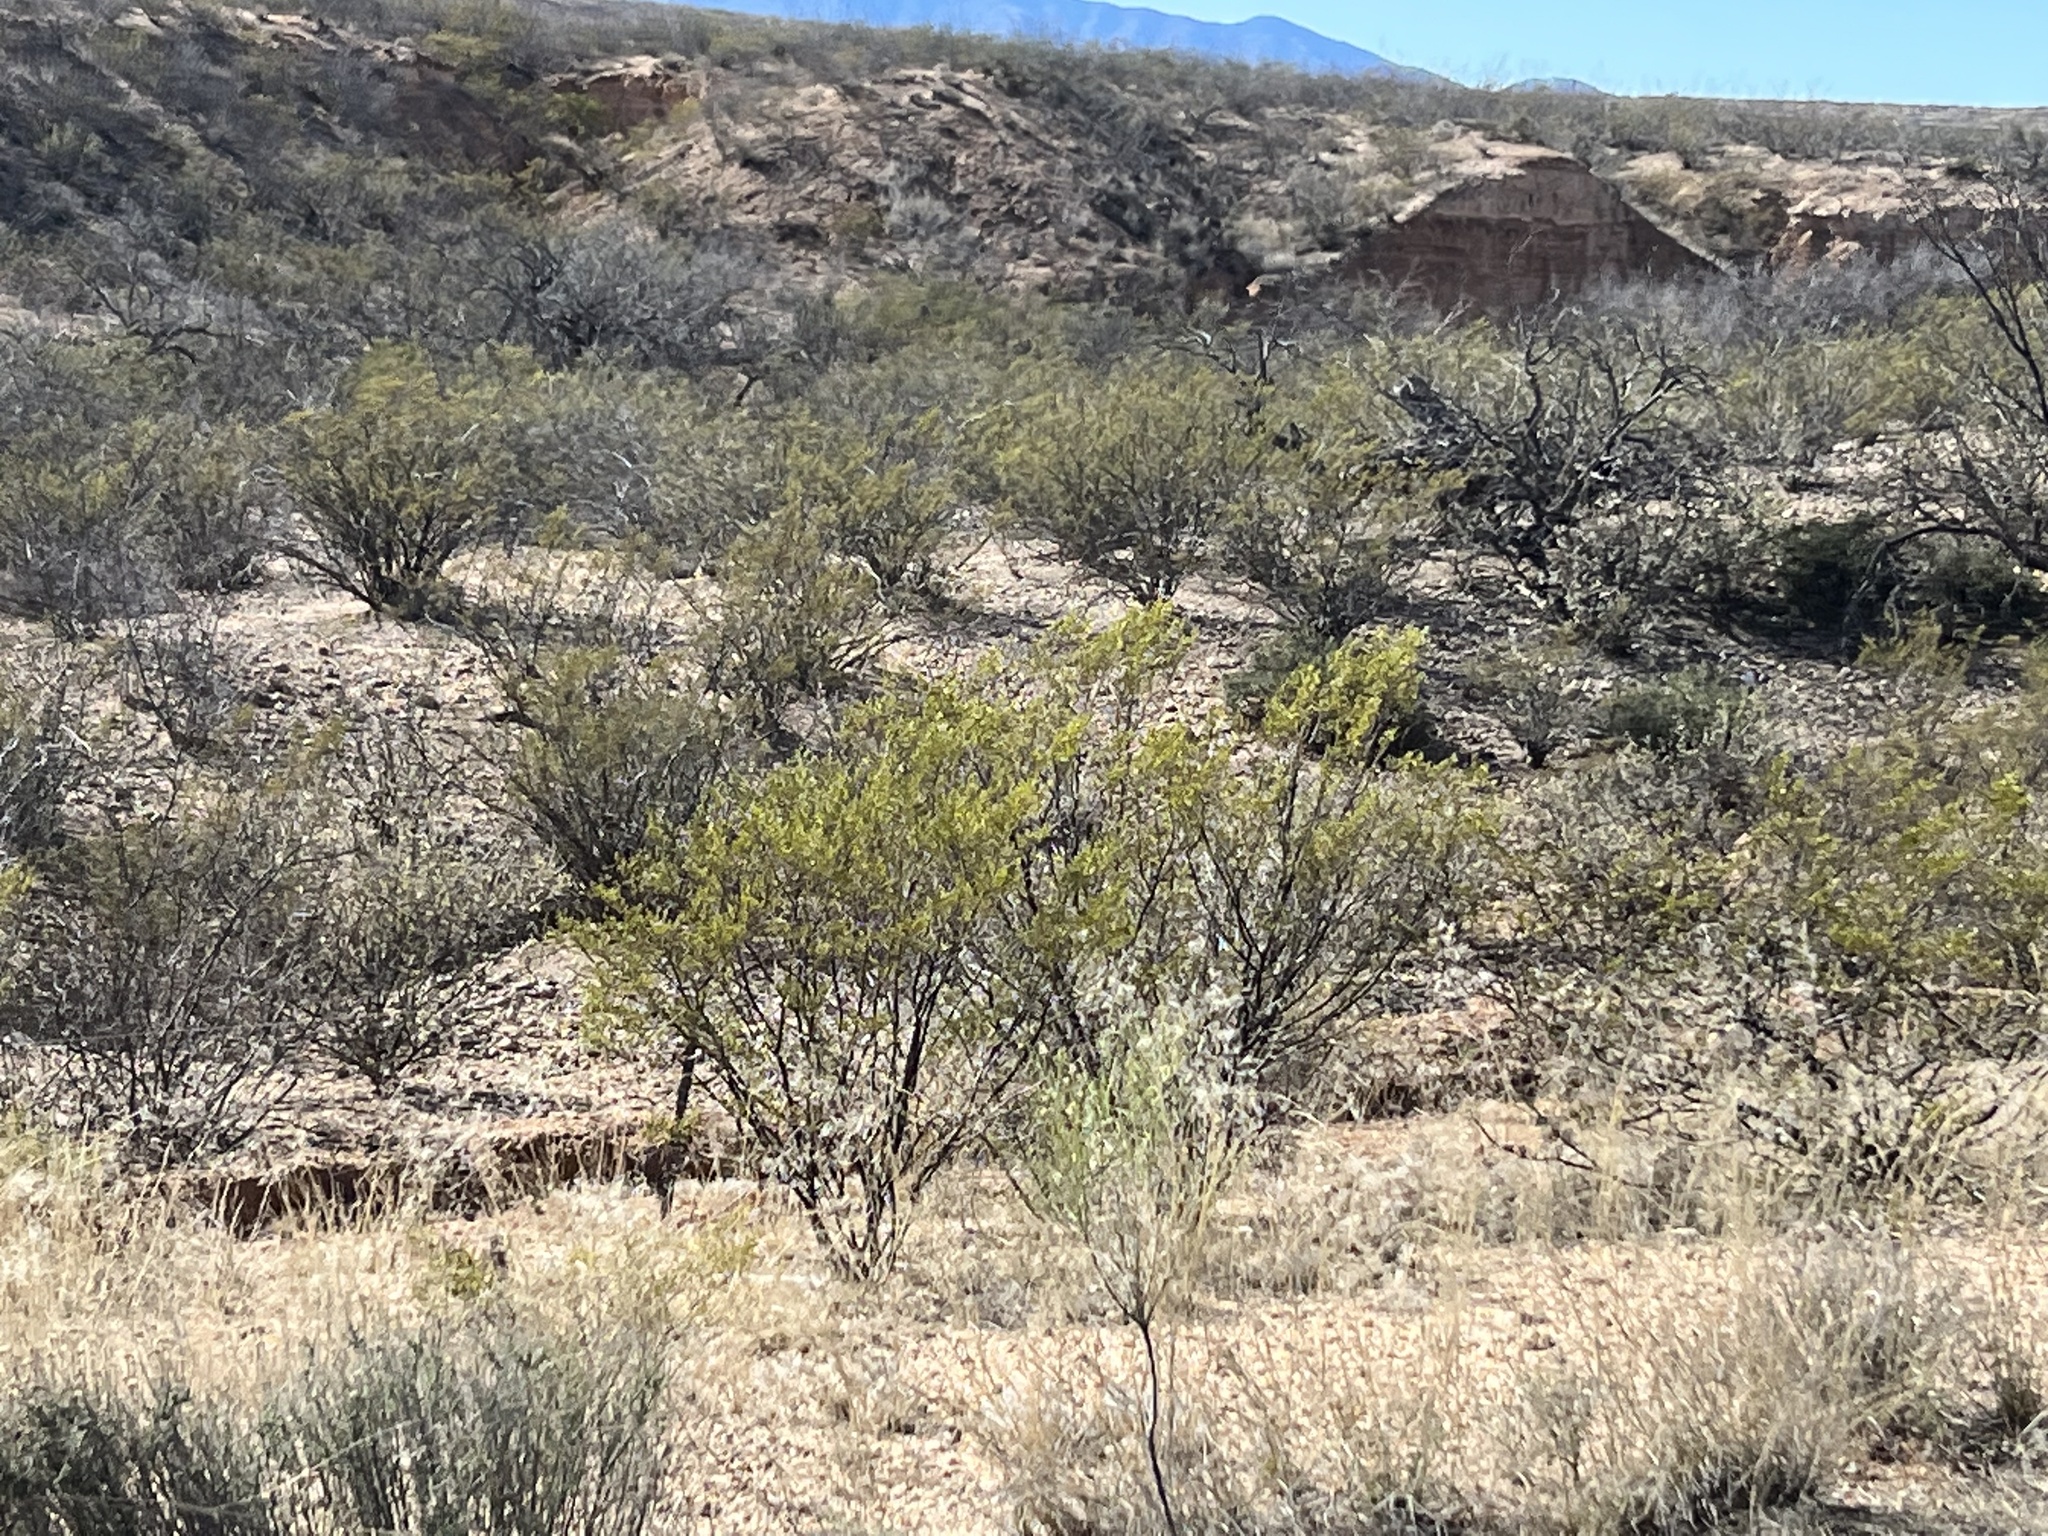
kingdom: Plantae
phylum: Tracheophyta
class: Magnoliopsida
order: Zygophyllales
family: Zygophyllaceae
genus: Larrea
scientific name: Larrea tridentata
